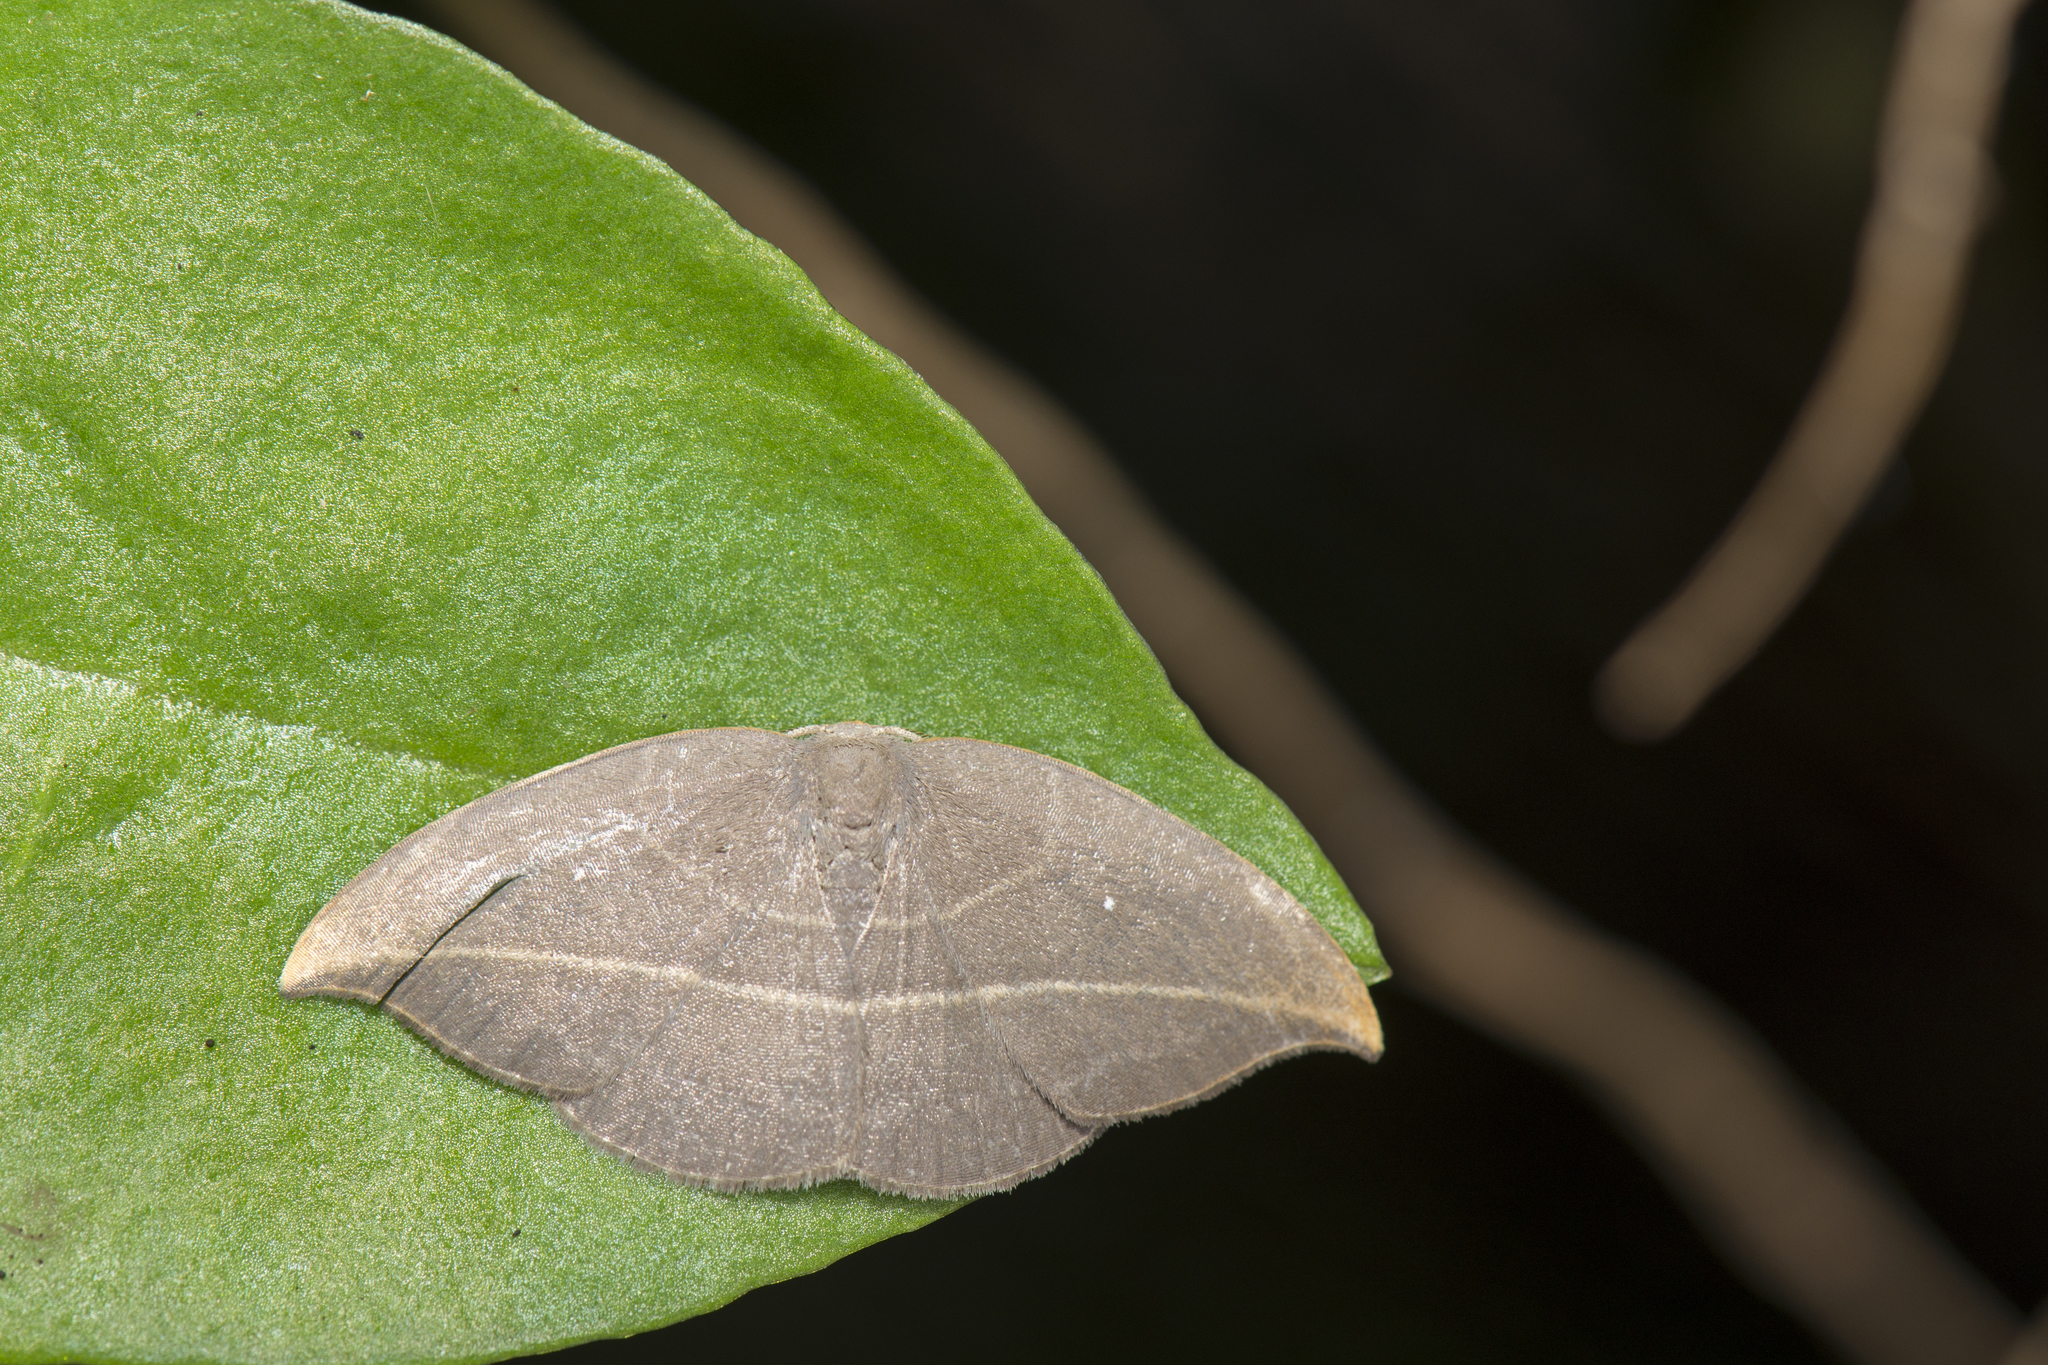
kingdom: Animalia
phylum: Arthropoda
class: Insecta
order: Lepidoptera
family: Drepanidae
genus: Microblepsis
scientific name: Microblepsis rugosa
